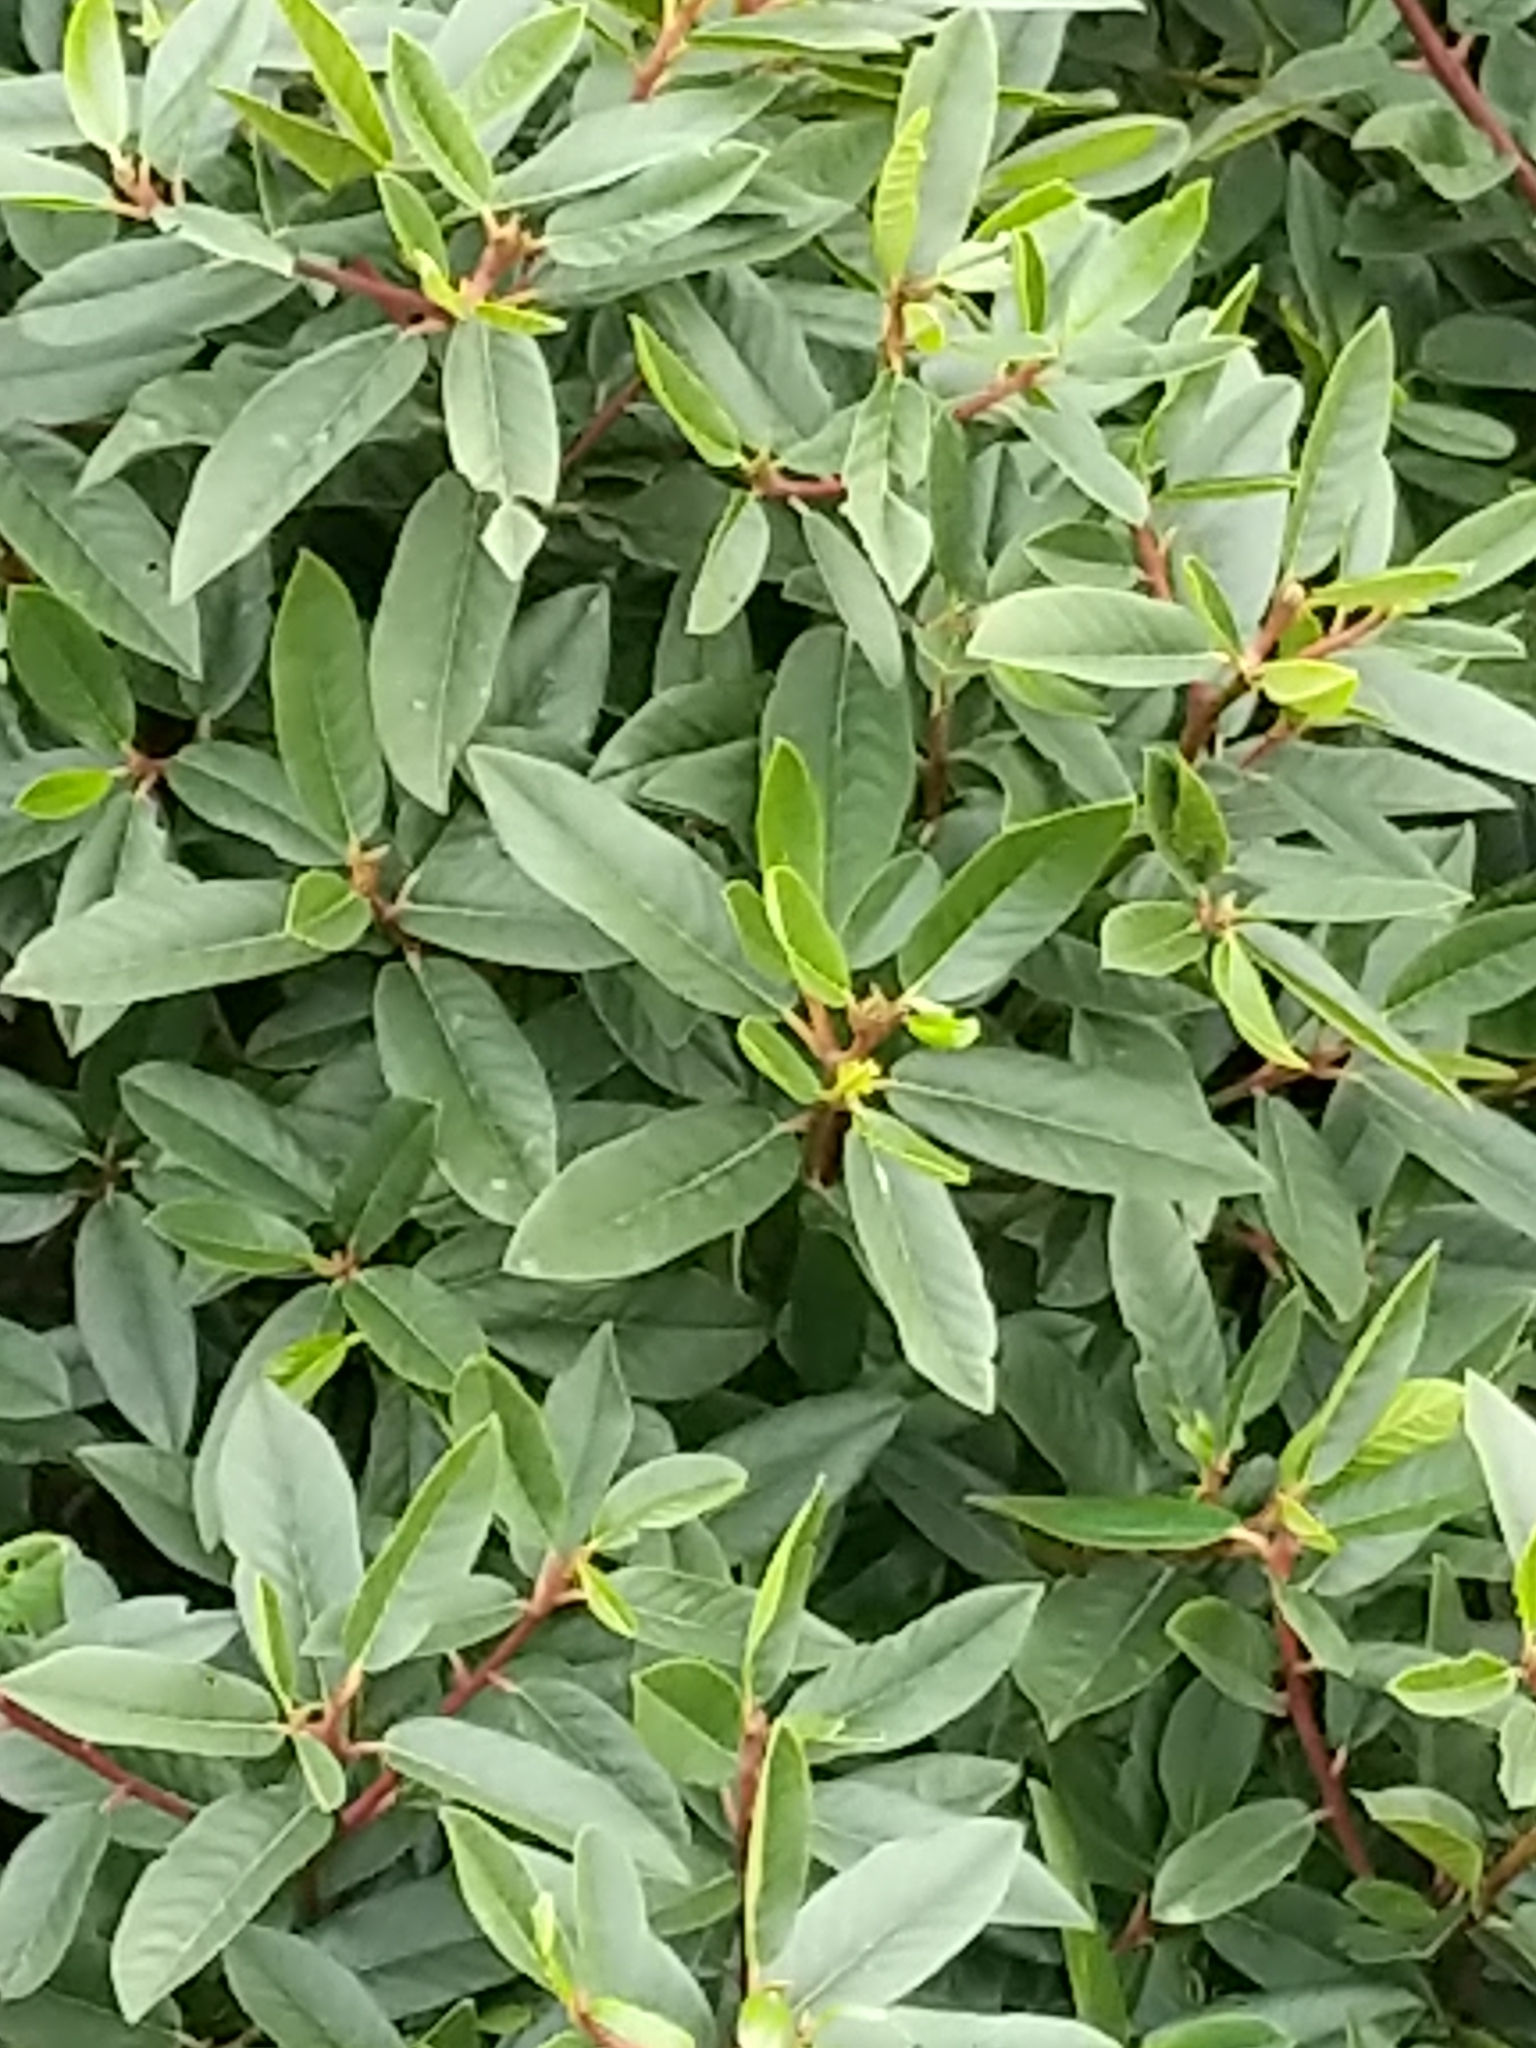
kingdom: Plantae
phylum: Tracheophyta
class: Magnoliopsida
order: Rosales
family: Rhamnaceae
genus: Frangula
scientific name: Frangula californica
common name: California buckthorn
